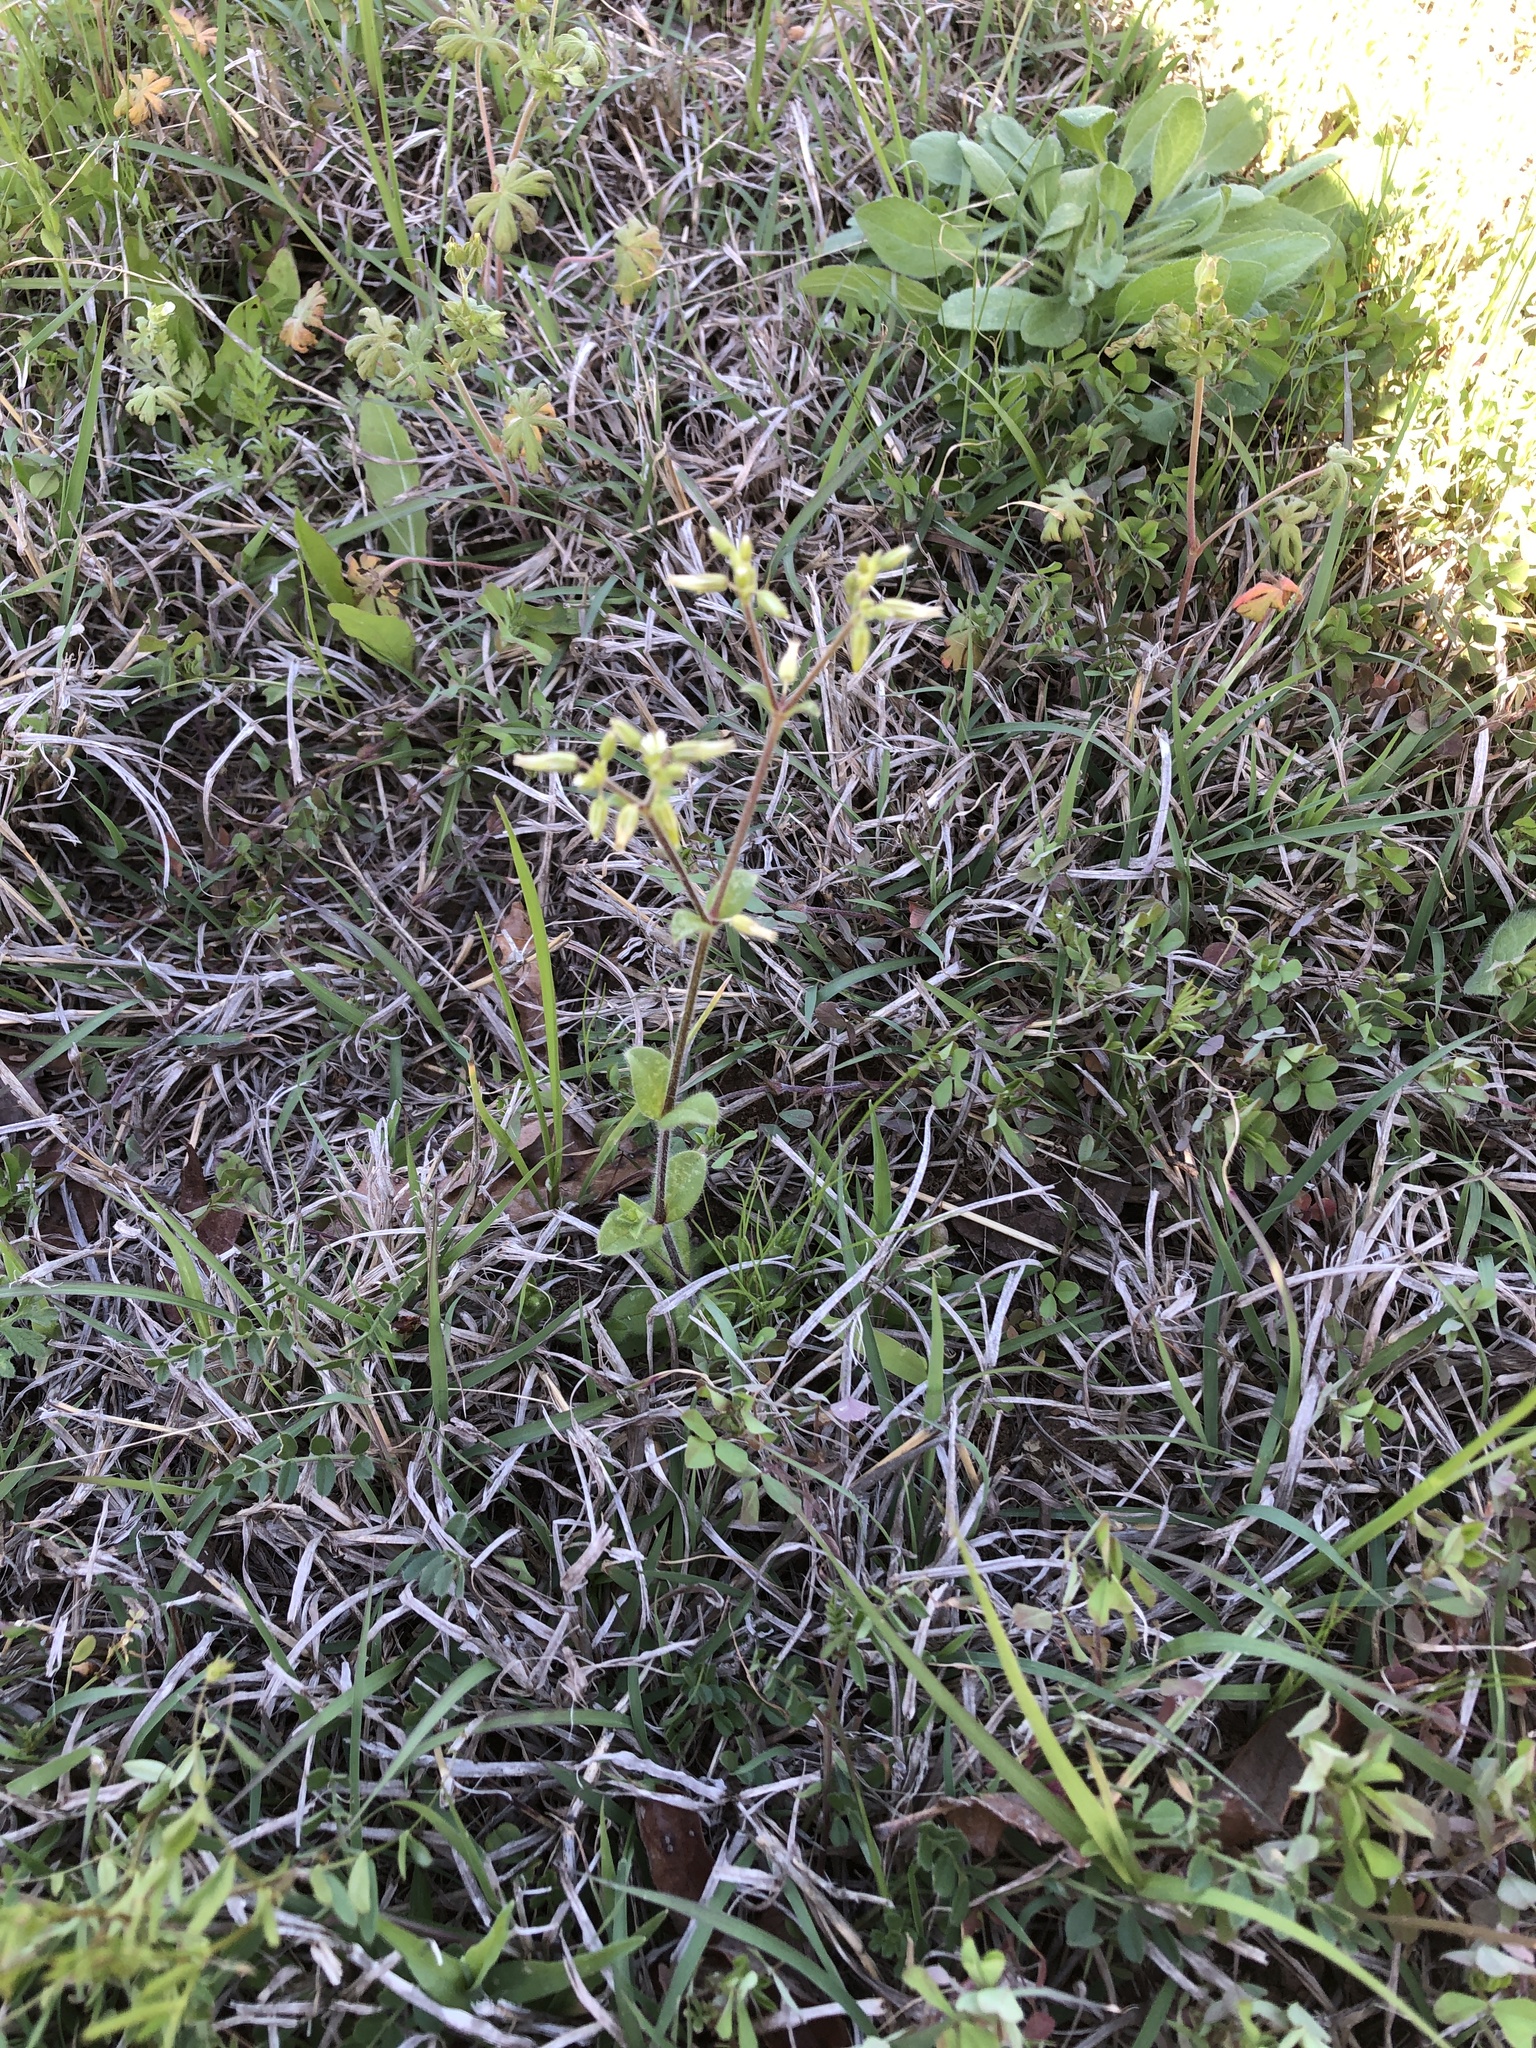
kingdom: Plantae
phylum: Tracheophyta
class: Magnoliopsida
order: Caryophyllales
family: Caryophyllaceae
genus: Cerastium
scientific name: Cerastium glomeratum
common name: Sticky chickweed
